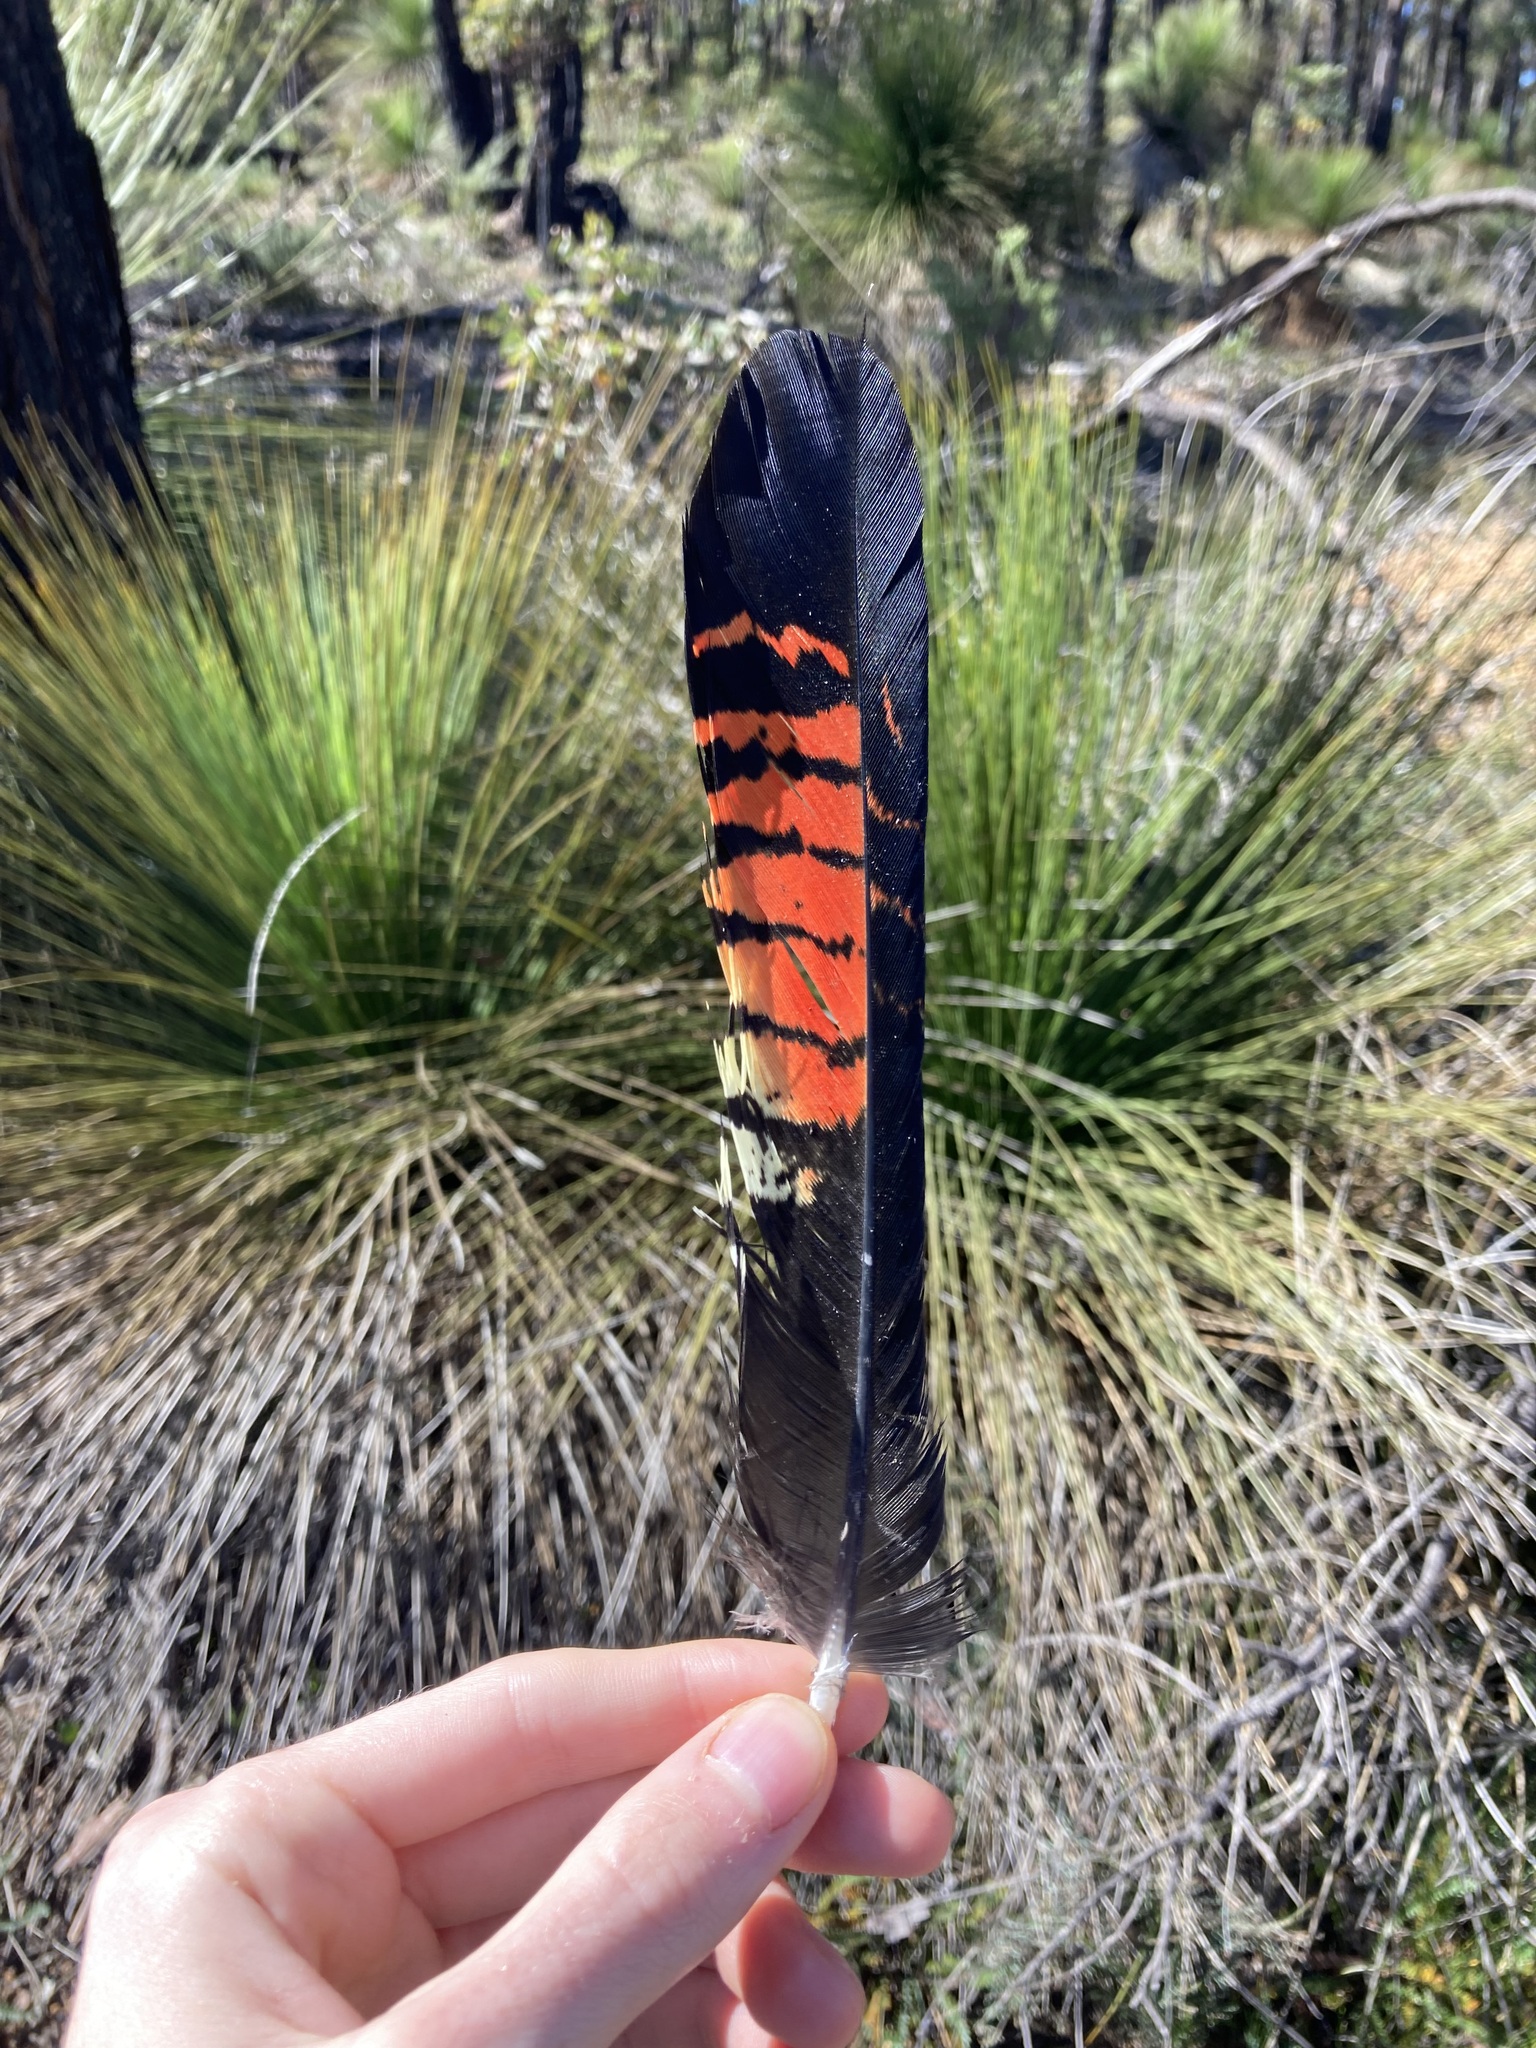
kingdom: Animalia
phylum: Chordata
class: Aves
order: Psittaciformes
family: Psittacidae
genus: Calyptorhynchus
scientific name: Calyptorhynchus banksii
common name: Red-tailed black cockatoo
